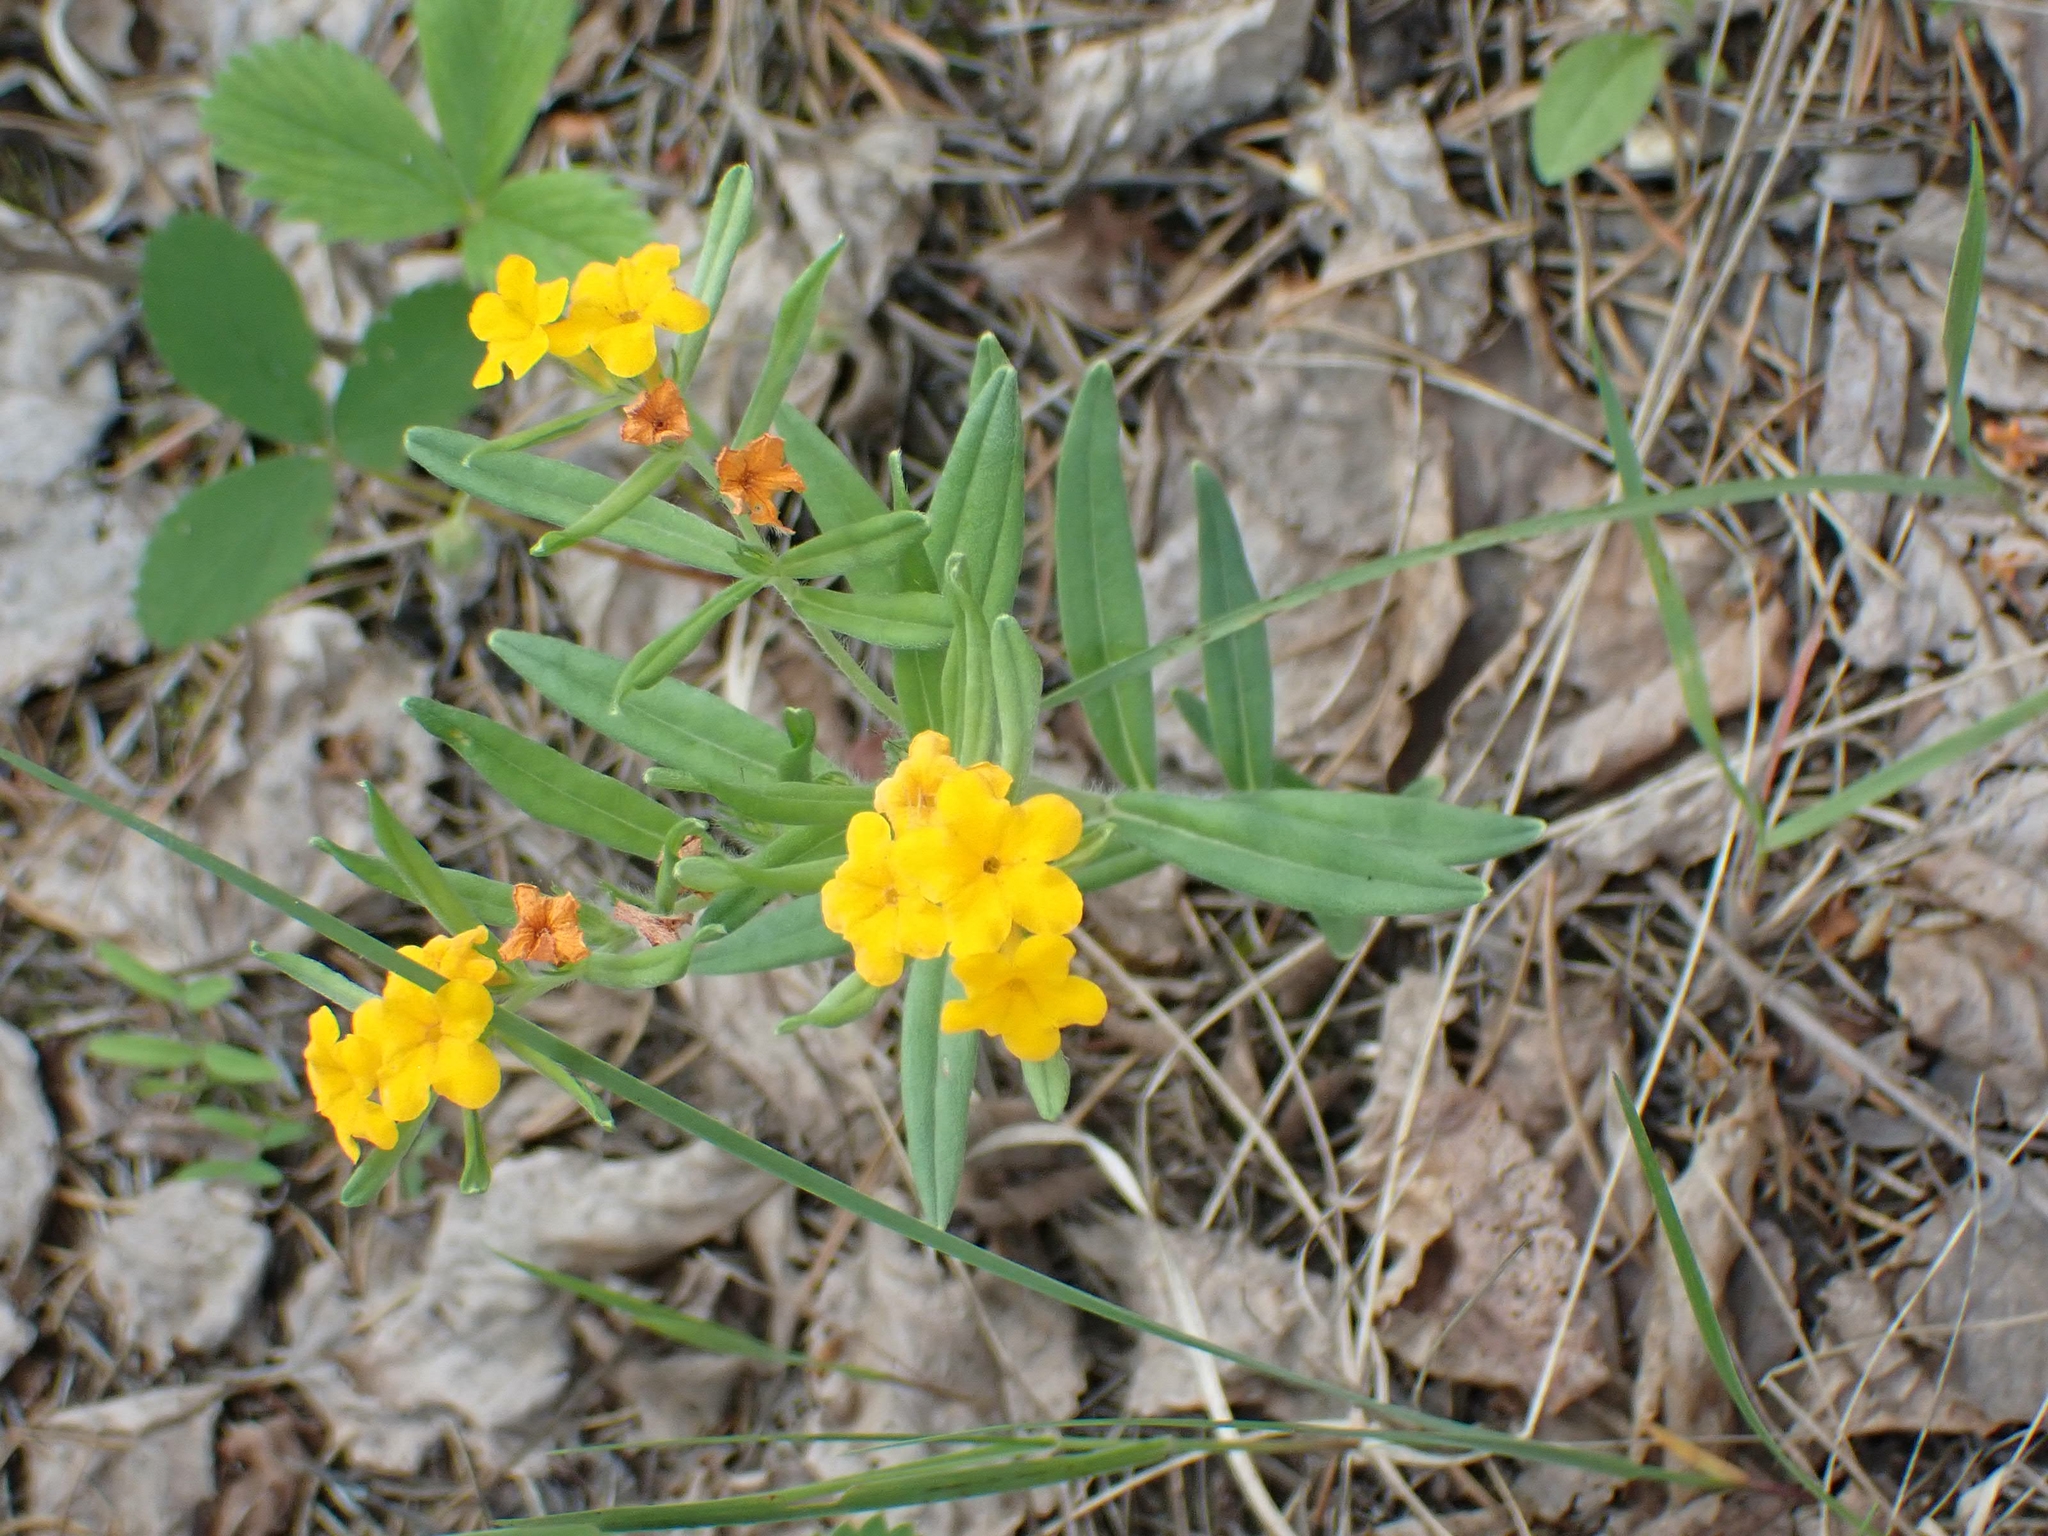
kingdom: Plantae
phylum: Tracheophyta
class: Magnoliopsida
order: Boraginales
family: Boraginaceae
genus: Lithospermum
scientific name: Lithospermum canescens
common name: Hoary puccoon
